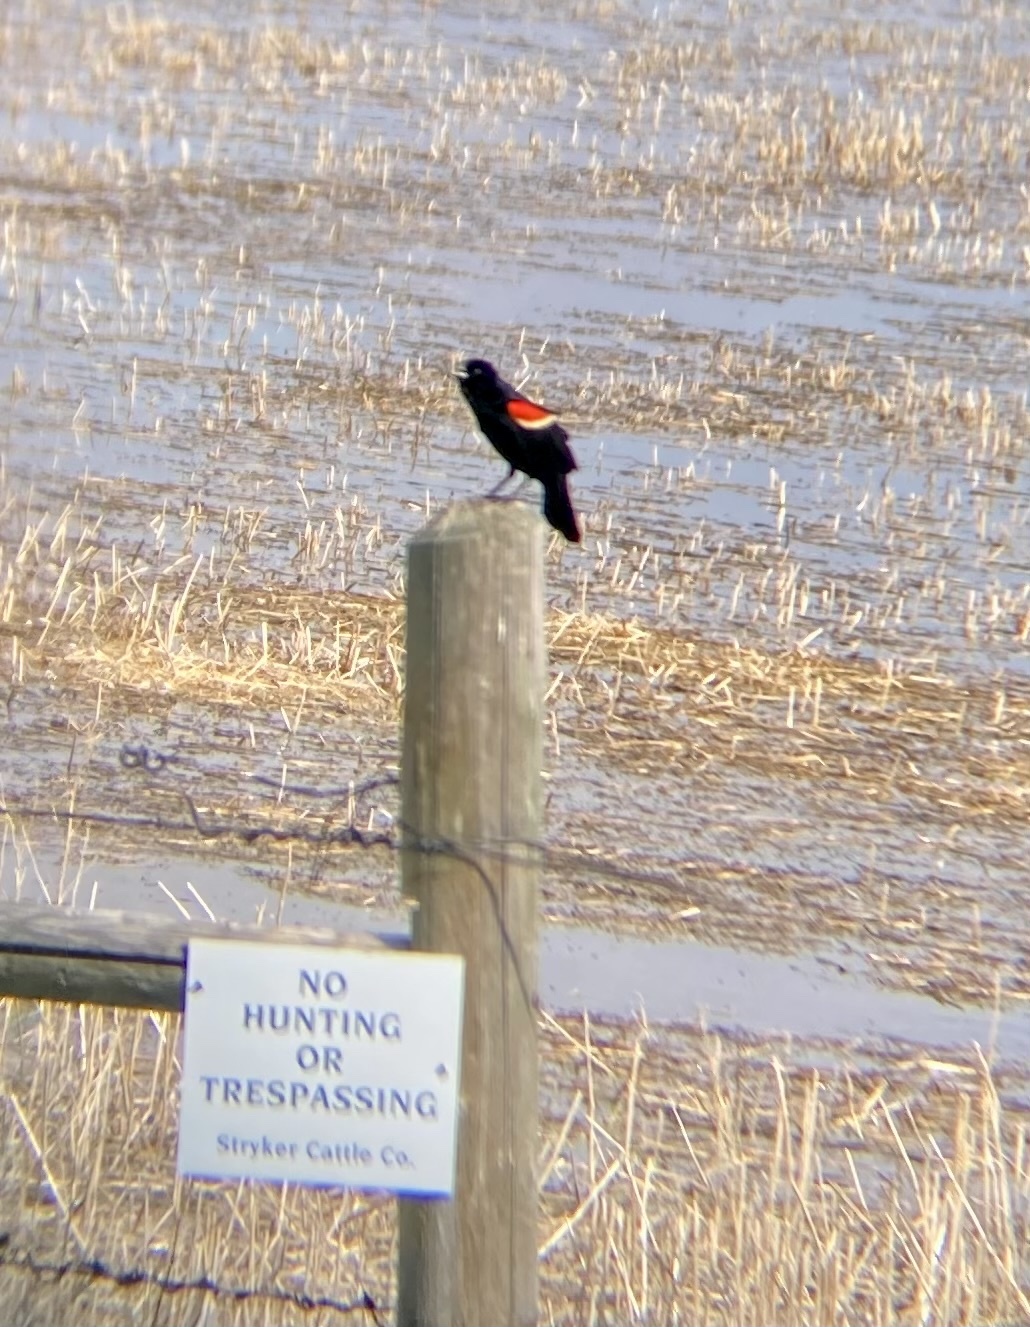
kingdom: Animalia
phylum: Chordata
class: Aves
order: Passeriformes
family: Icteridae
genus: Agelaius
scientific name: Agelaius phoeniceus
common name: Red-winged blackbird
